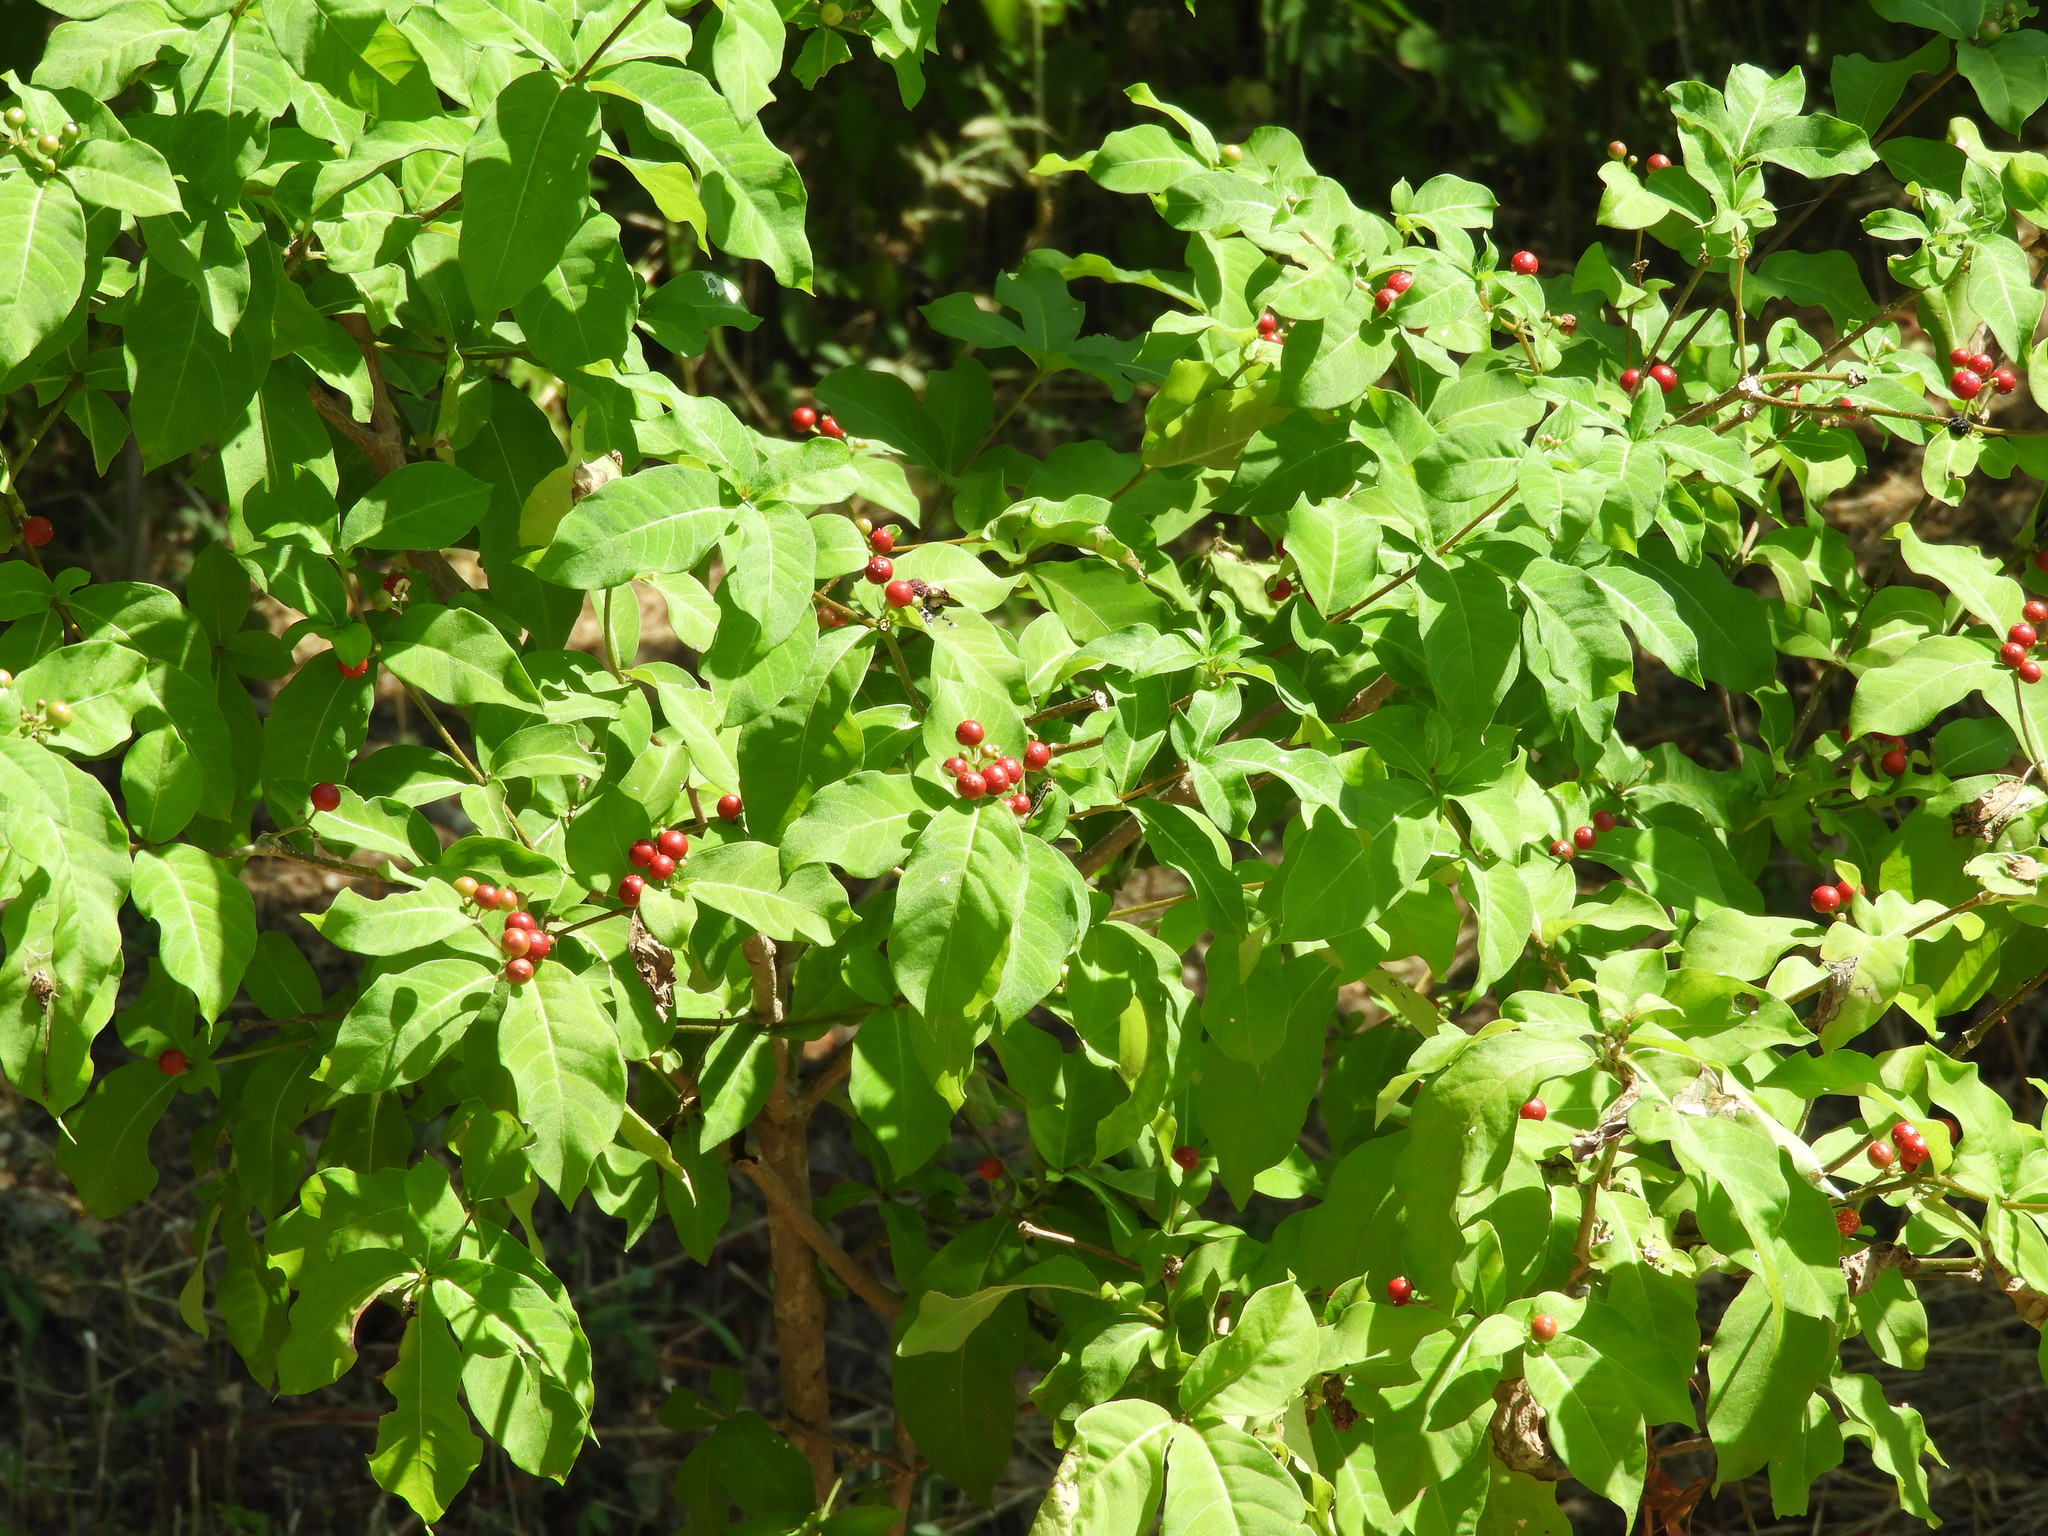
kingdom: Plantae
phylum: Tracheophyta
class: Magnoliopsida
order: Gentianales
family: Apocynaceae
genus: Rauvolfia
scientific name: Rauvolfia tetraphylla
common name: Four-leaf devil-pepper
